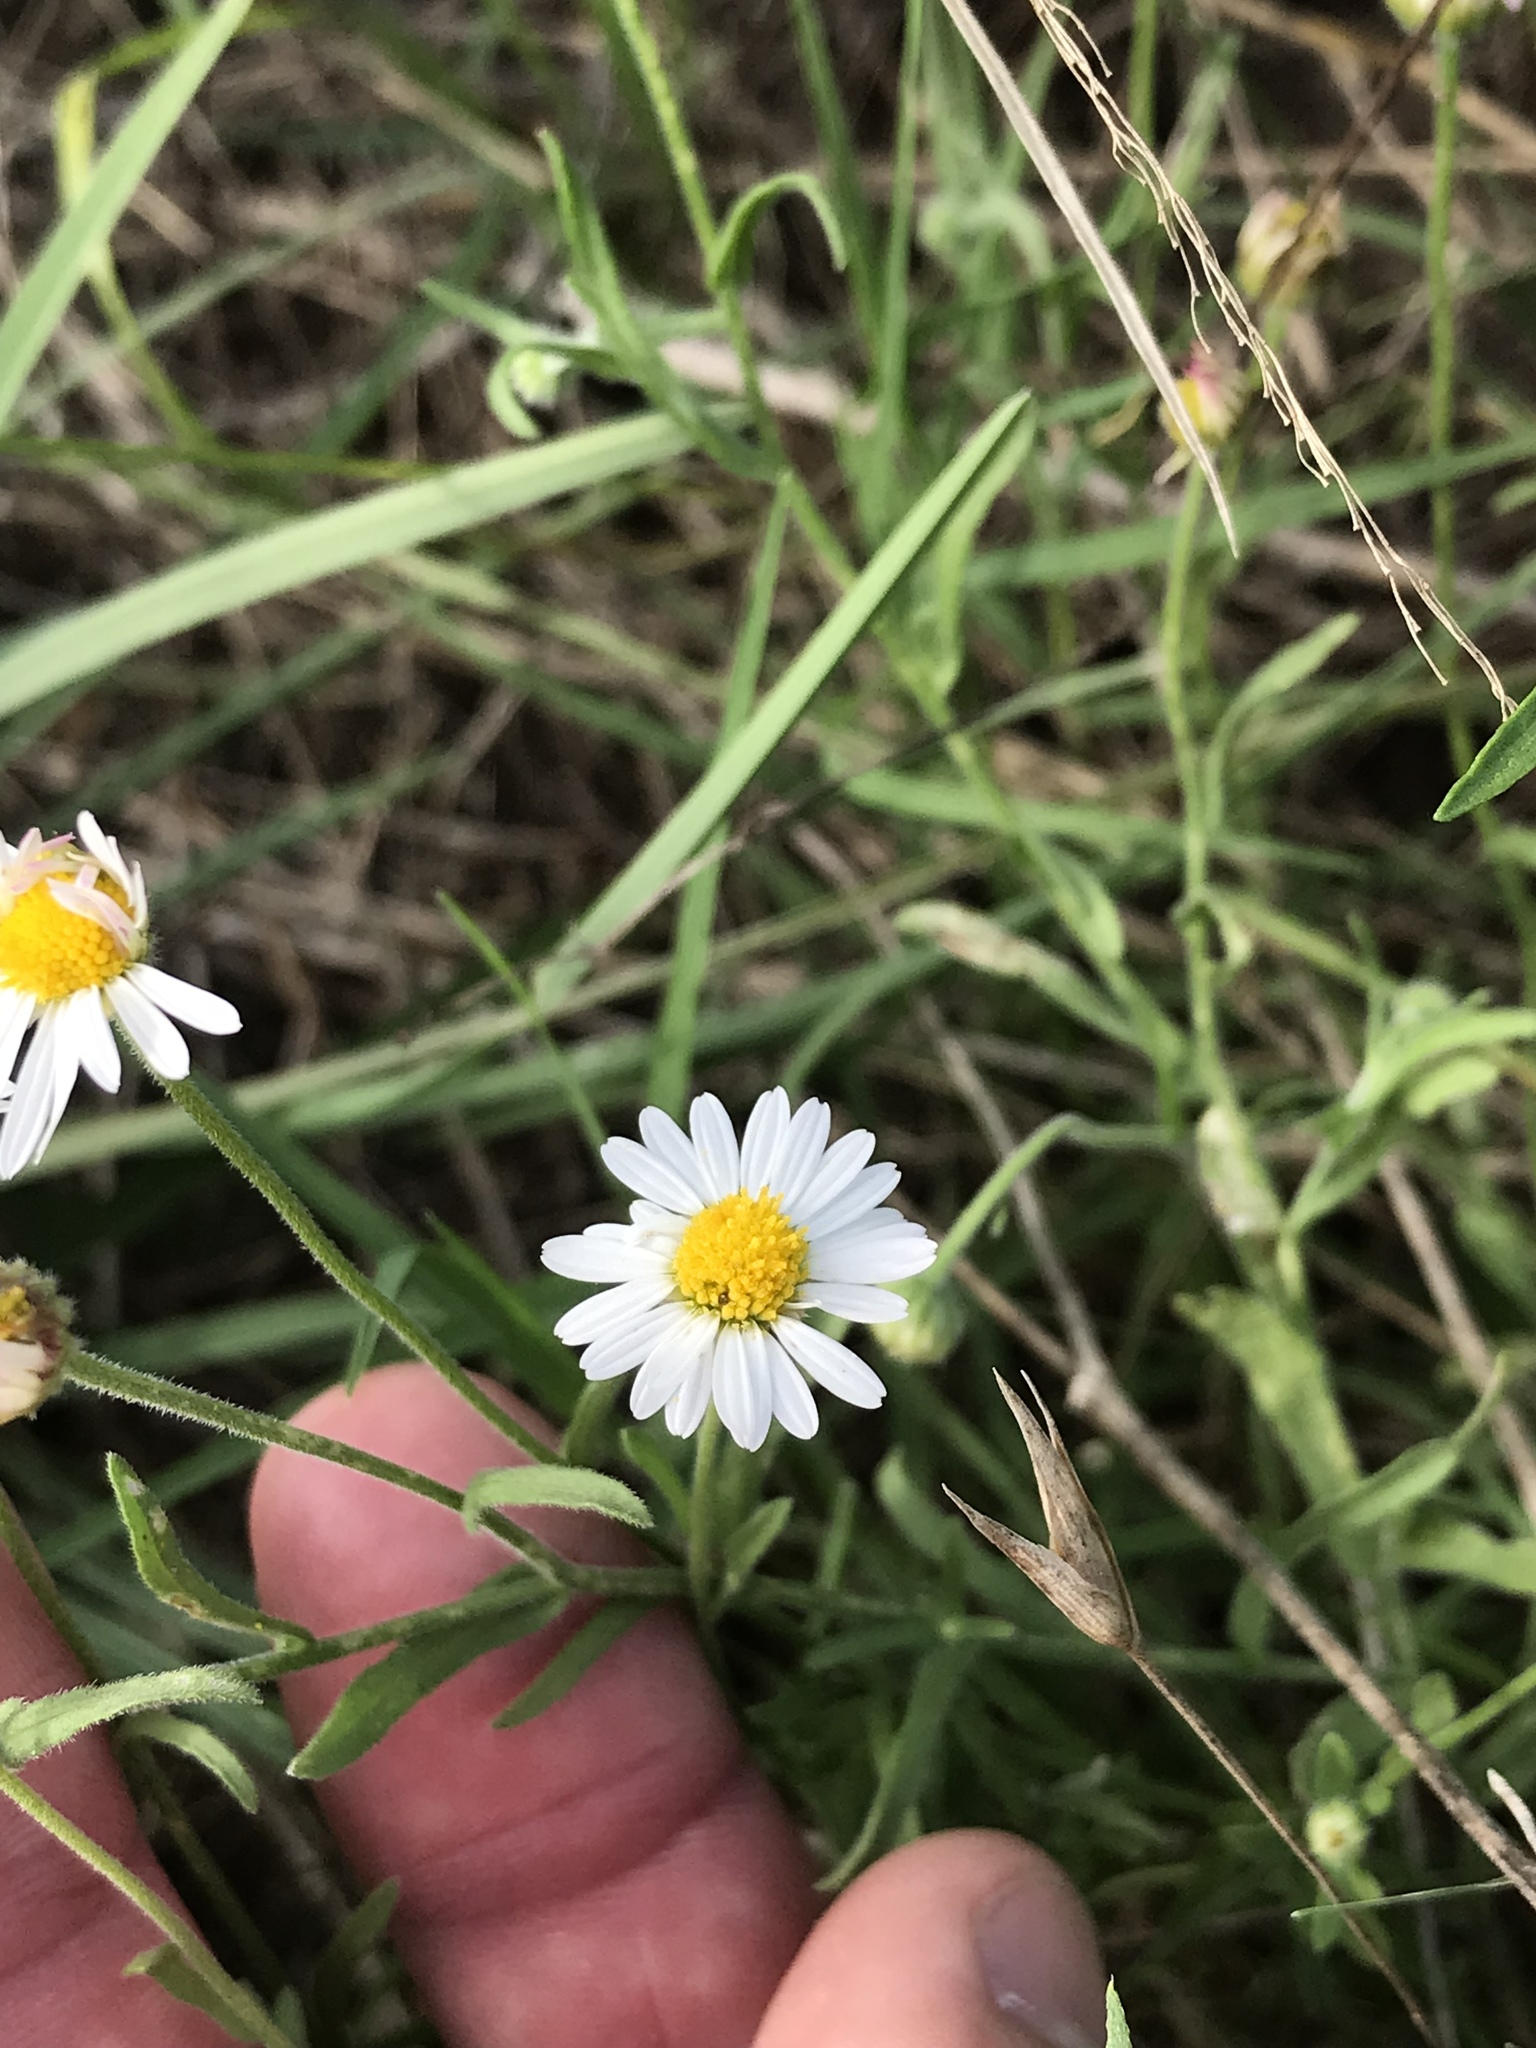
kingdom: Plantae
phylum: Tracheophyta
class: Magnoliopsida
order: Asterales
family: Asteraceae
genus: Erigeron
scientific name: Erigeron modestus
